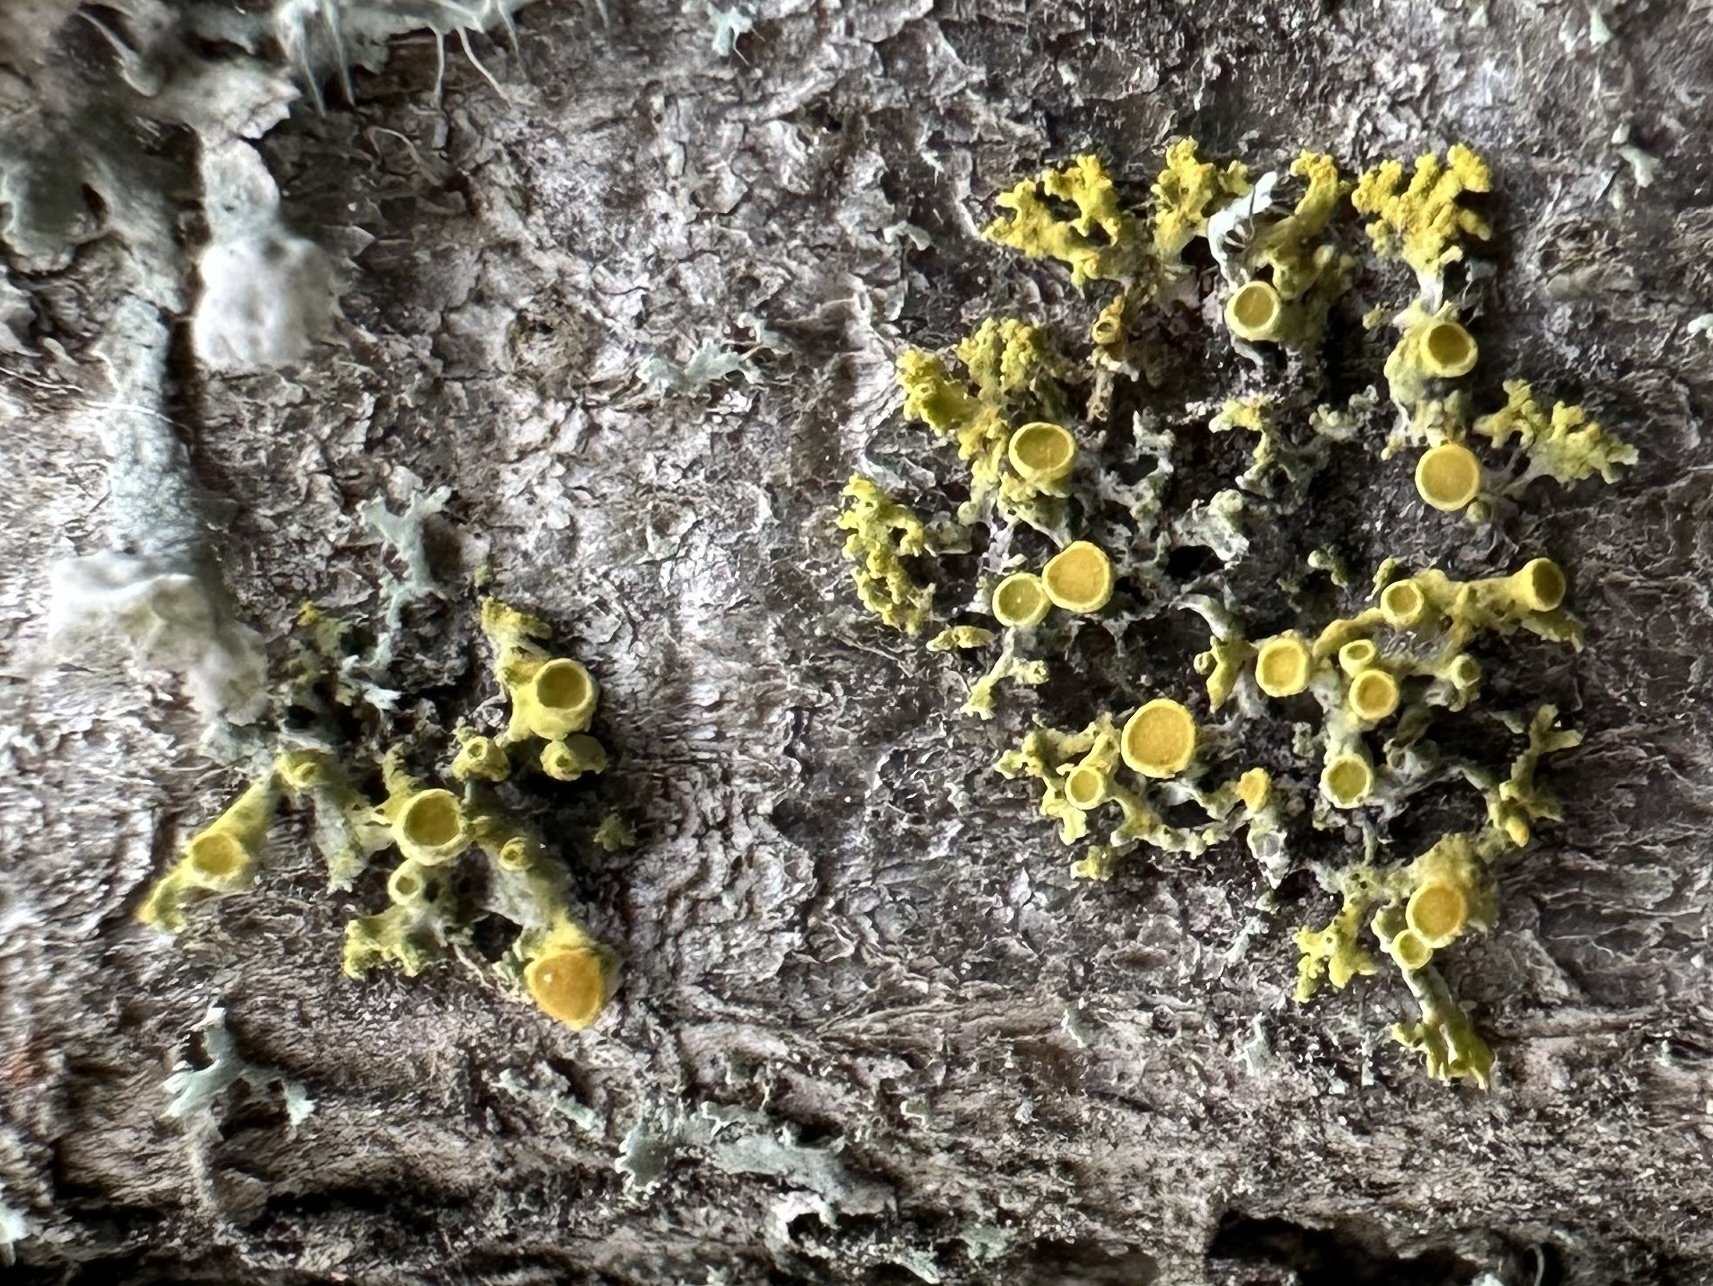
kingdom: Fungi
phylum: Ascomycota
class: Lecanoromycetes
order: Teloschistales
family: Teloschistaceae
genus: Polycauliona
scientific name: Polycauliona polycarpa
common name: Pin-cushion sunburst lichen
